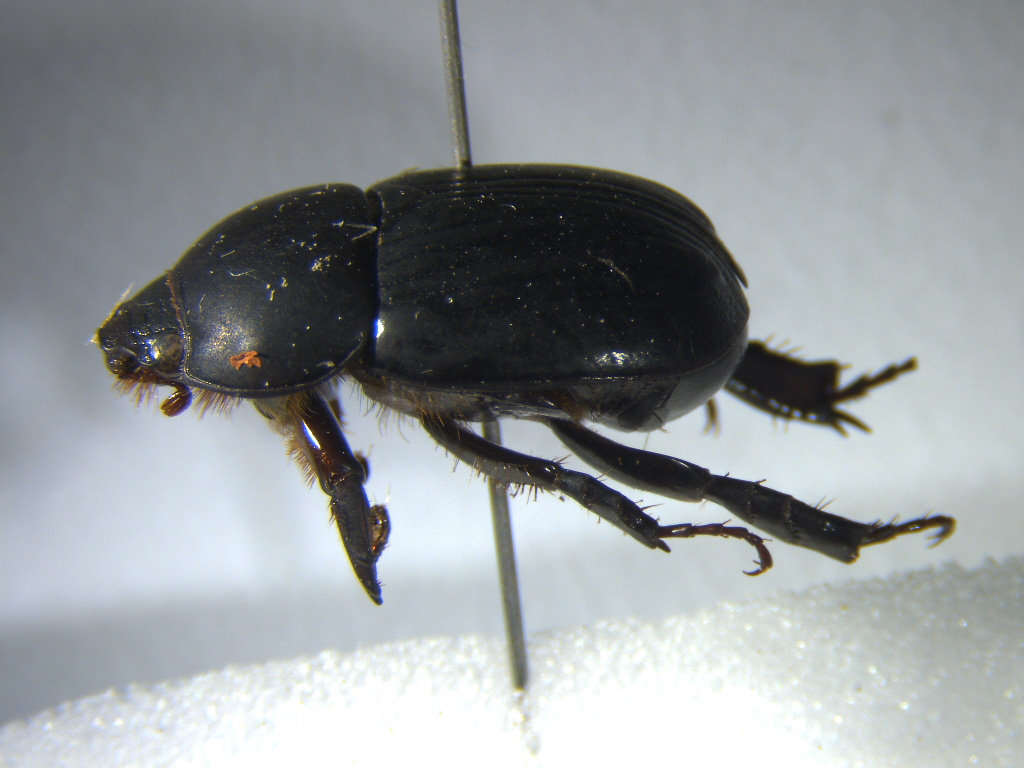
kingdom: Animalia
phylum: Arthropoda
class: Insecta
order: Coleoptera
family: Scarabaeidae
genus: Heteronychus
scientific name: Heteronychus arator
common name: African black beetle
